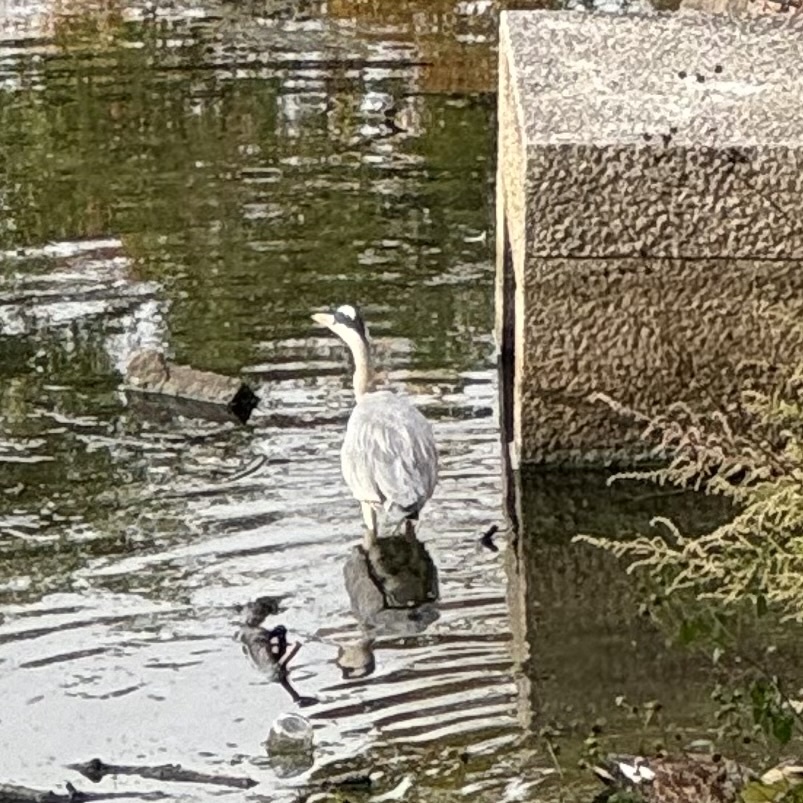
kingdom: Animalia
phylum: Chordata
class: Aves
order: Pelecaniformes
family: Ardeidae
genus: Ardea
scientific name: Ardea cinerea
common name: Grey heron
